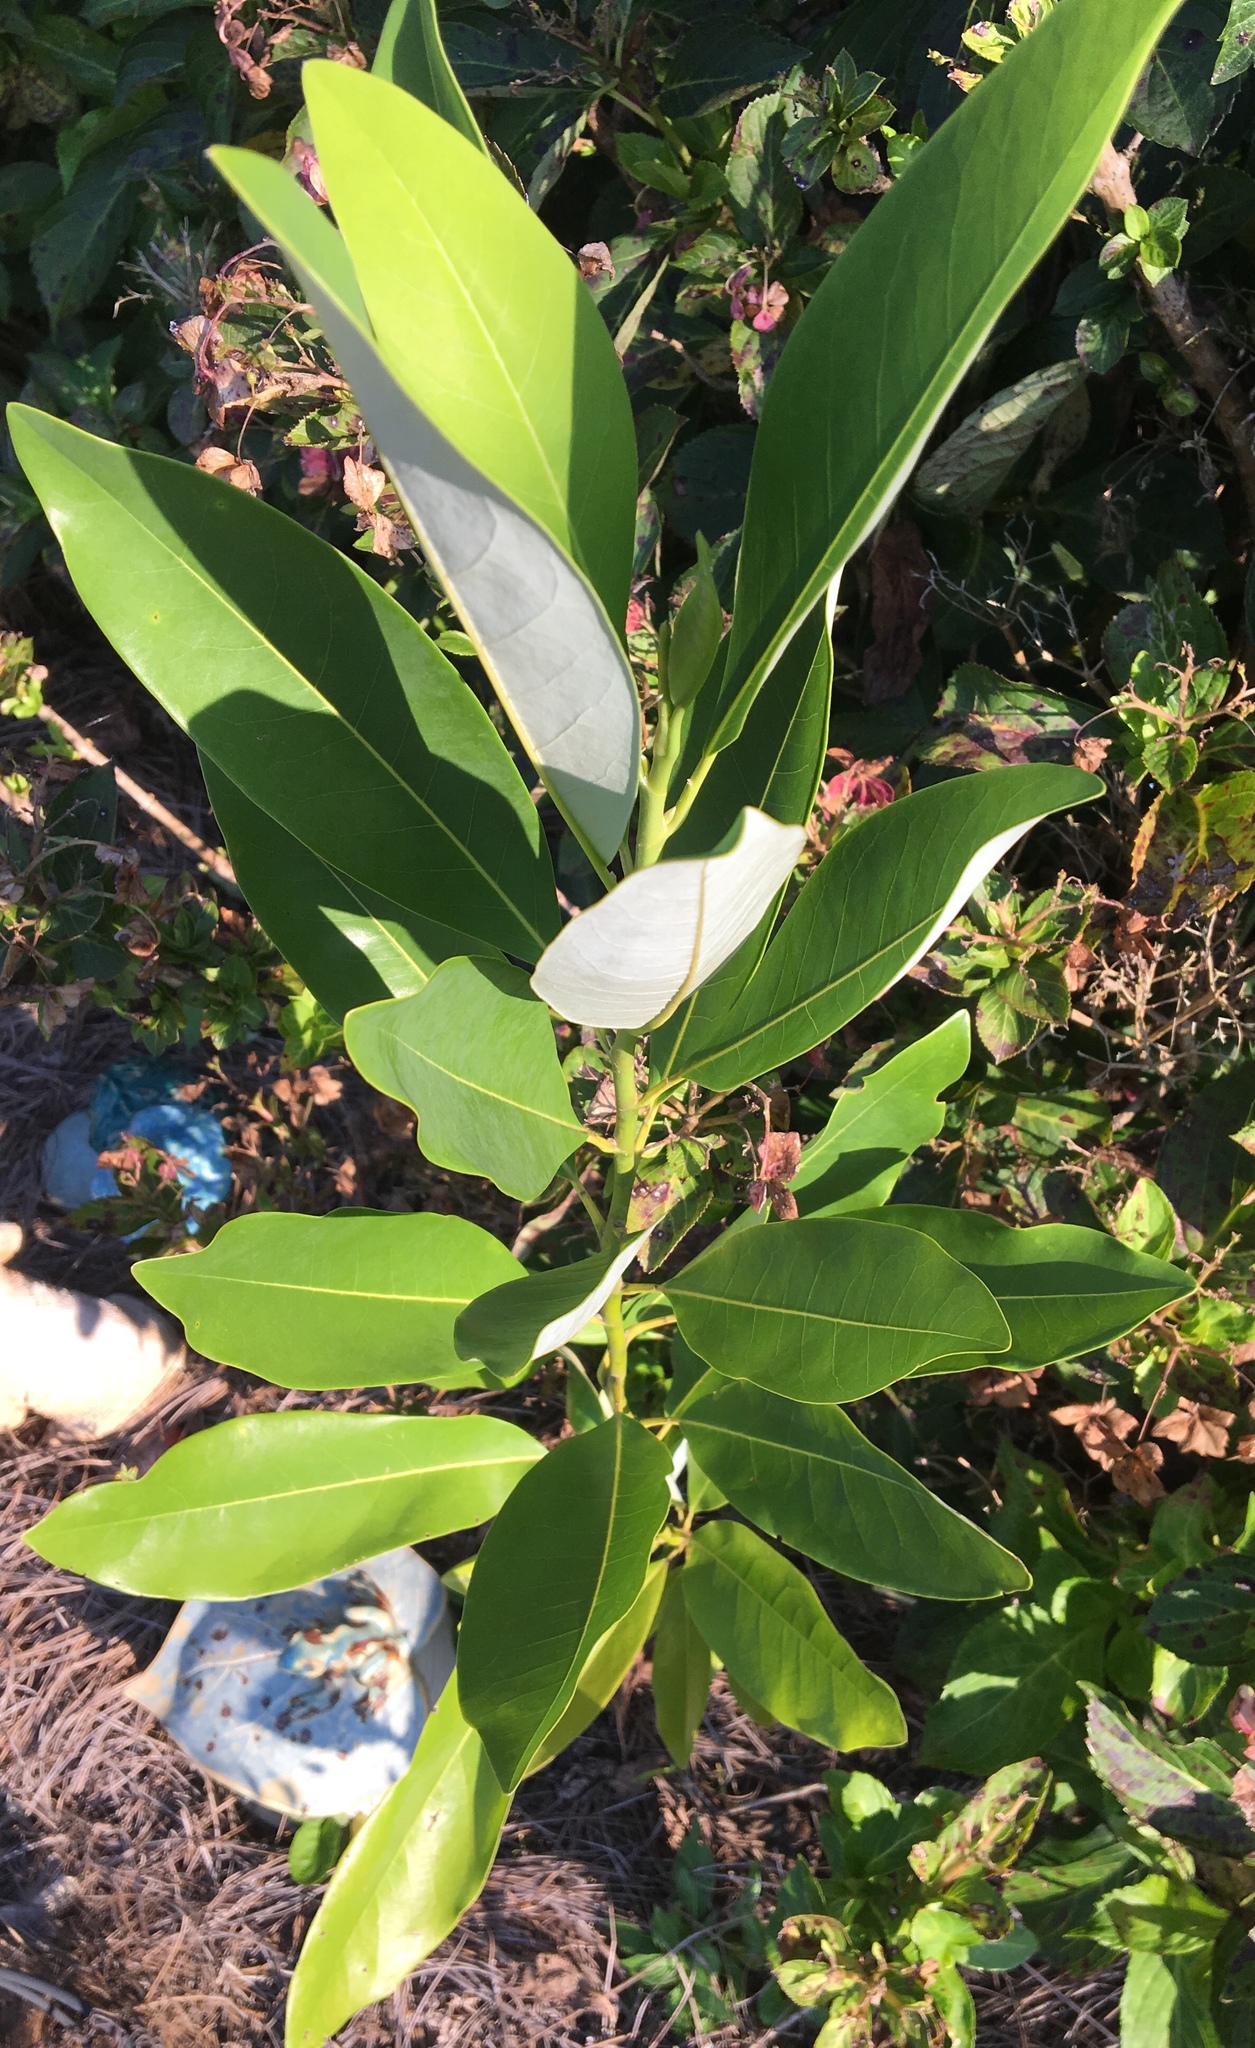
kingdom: Plantae
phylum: Tracheophyta
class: Magnoliopsida
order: Magnoliales
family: Magnoliaceae
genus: Magnolia
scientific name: Magnolia virginiana
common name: Swamp bay
